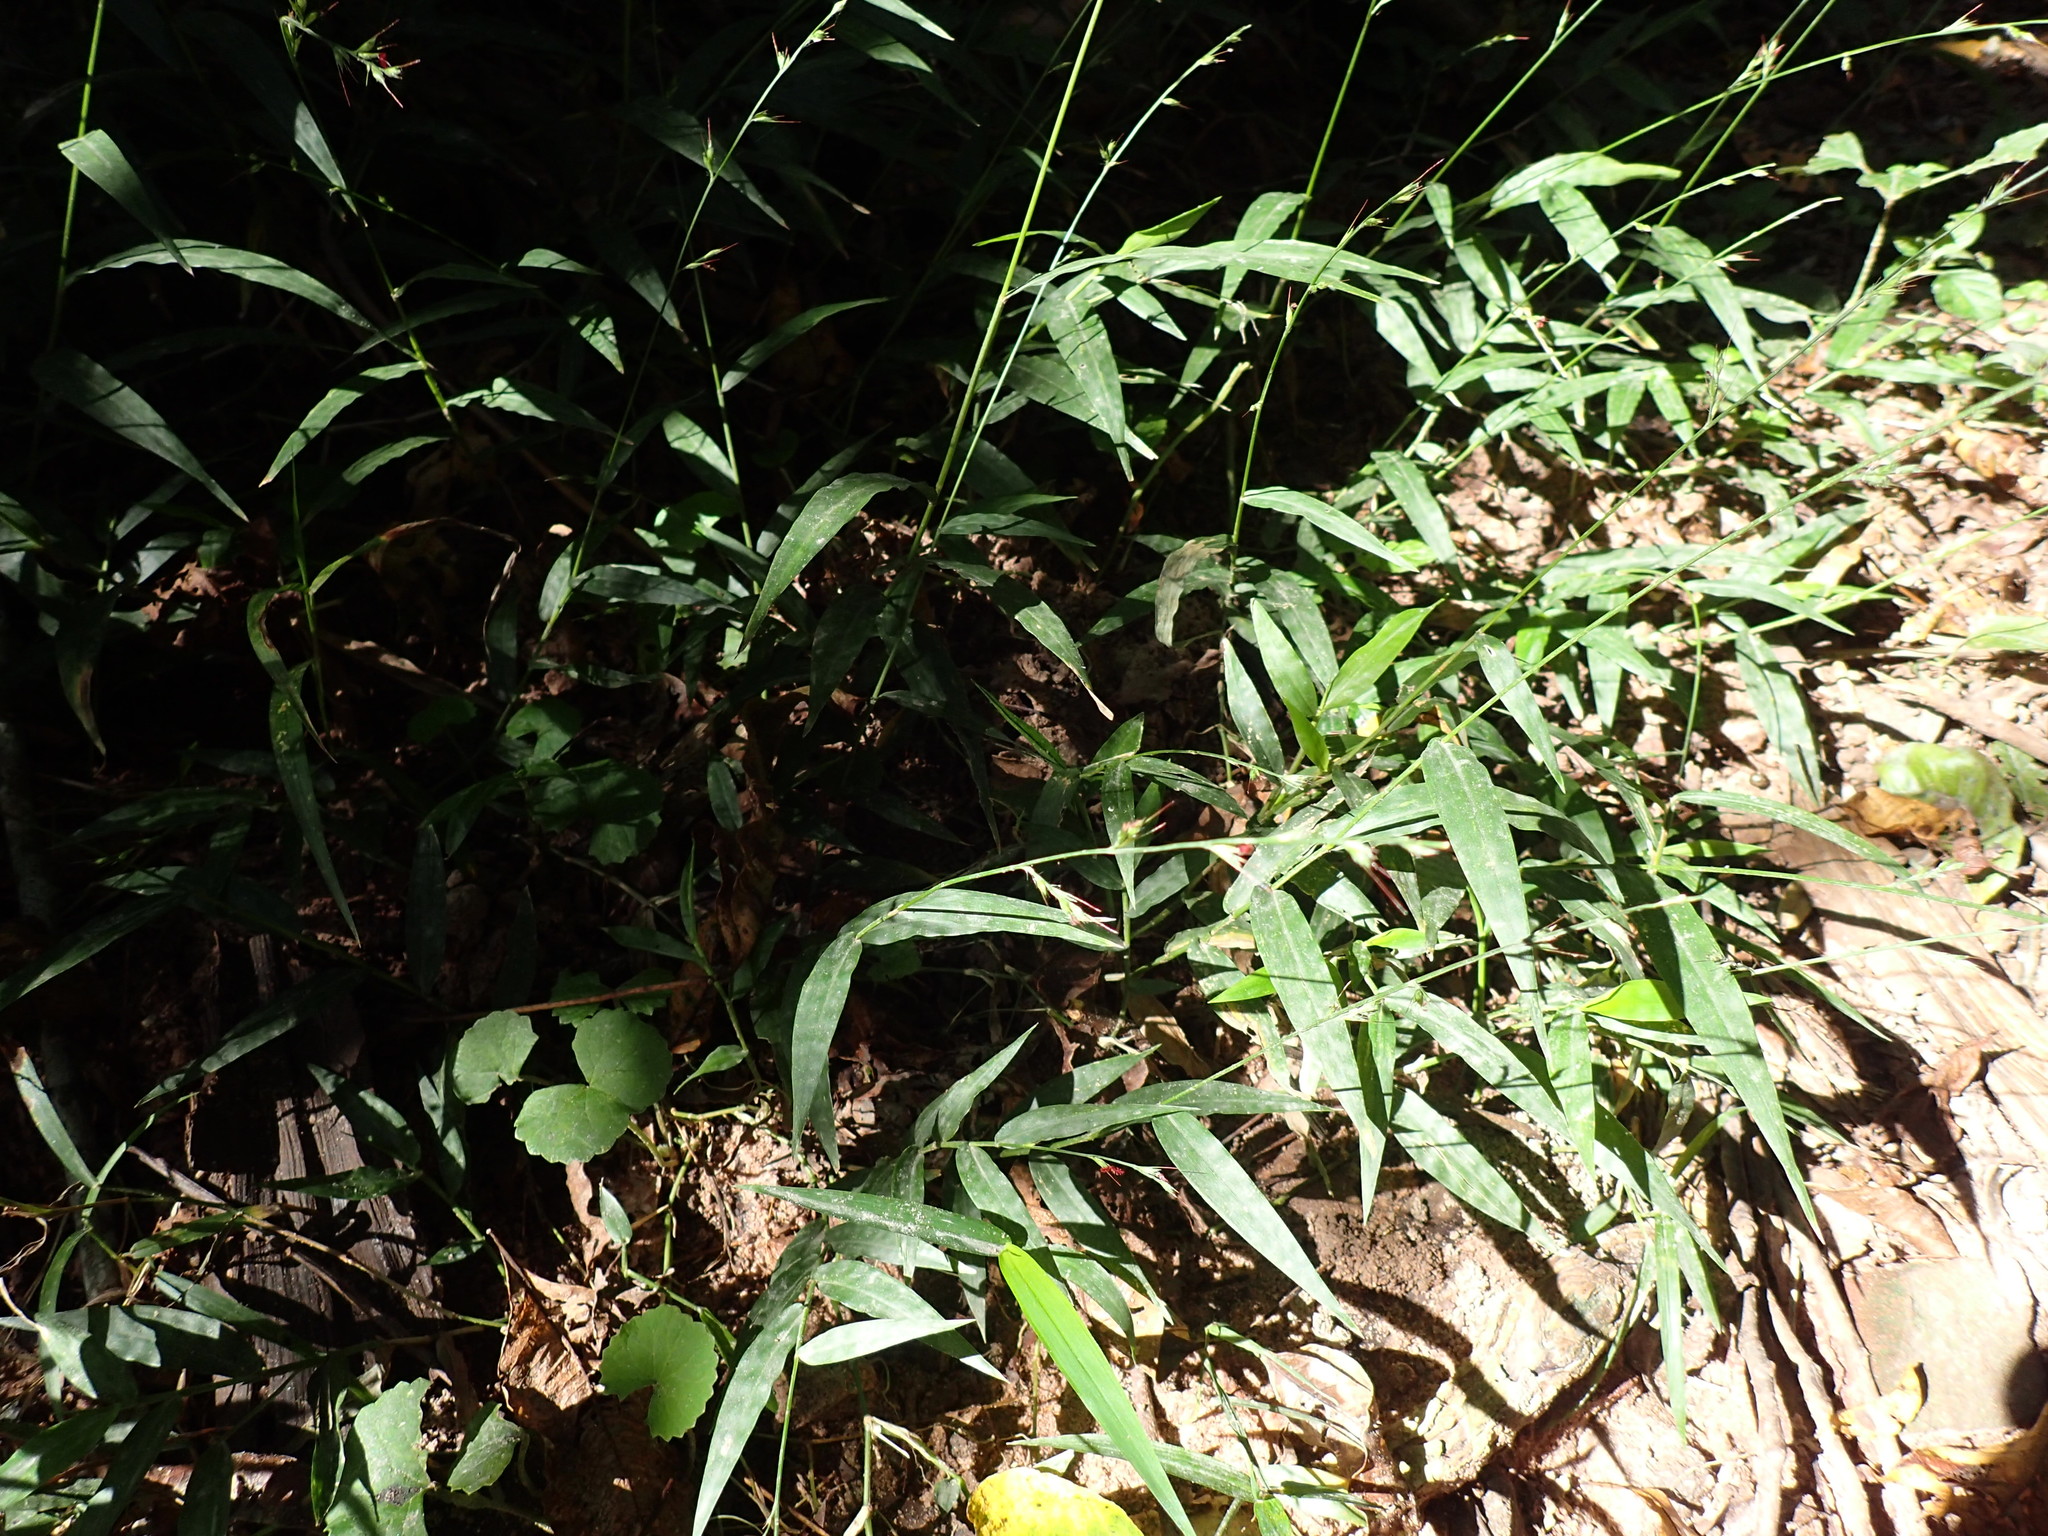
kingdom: Plantae
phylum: Tracheophyta
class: Liliopsida
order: Poales
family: Poaceae
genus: Oplismenus
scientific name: Oplismenus hirtellus
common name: Basketgrass
